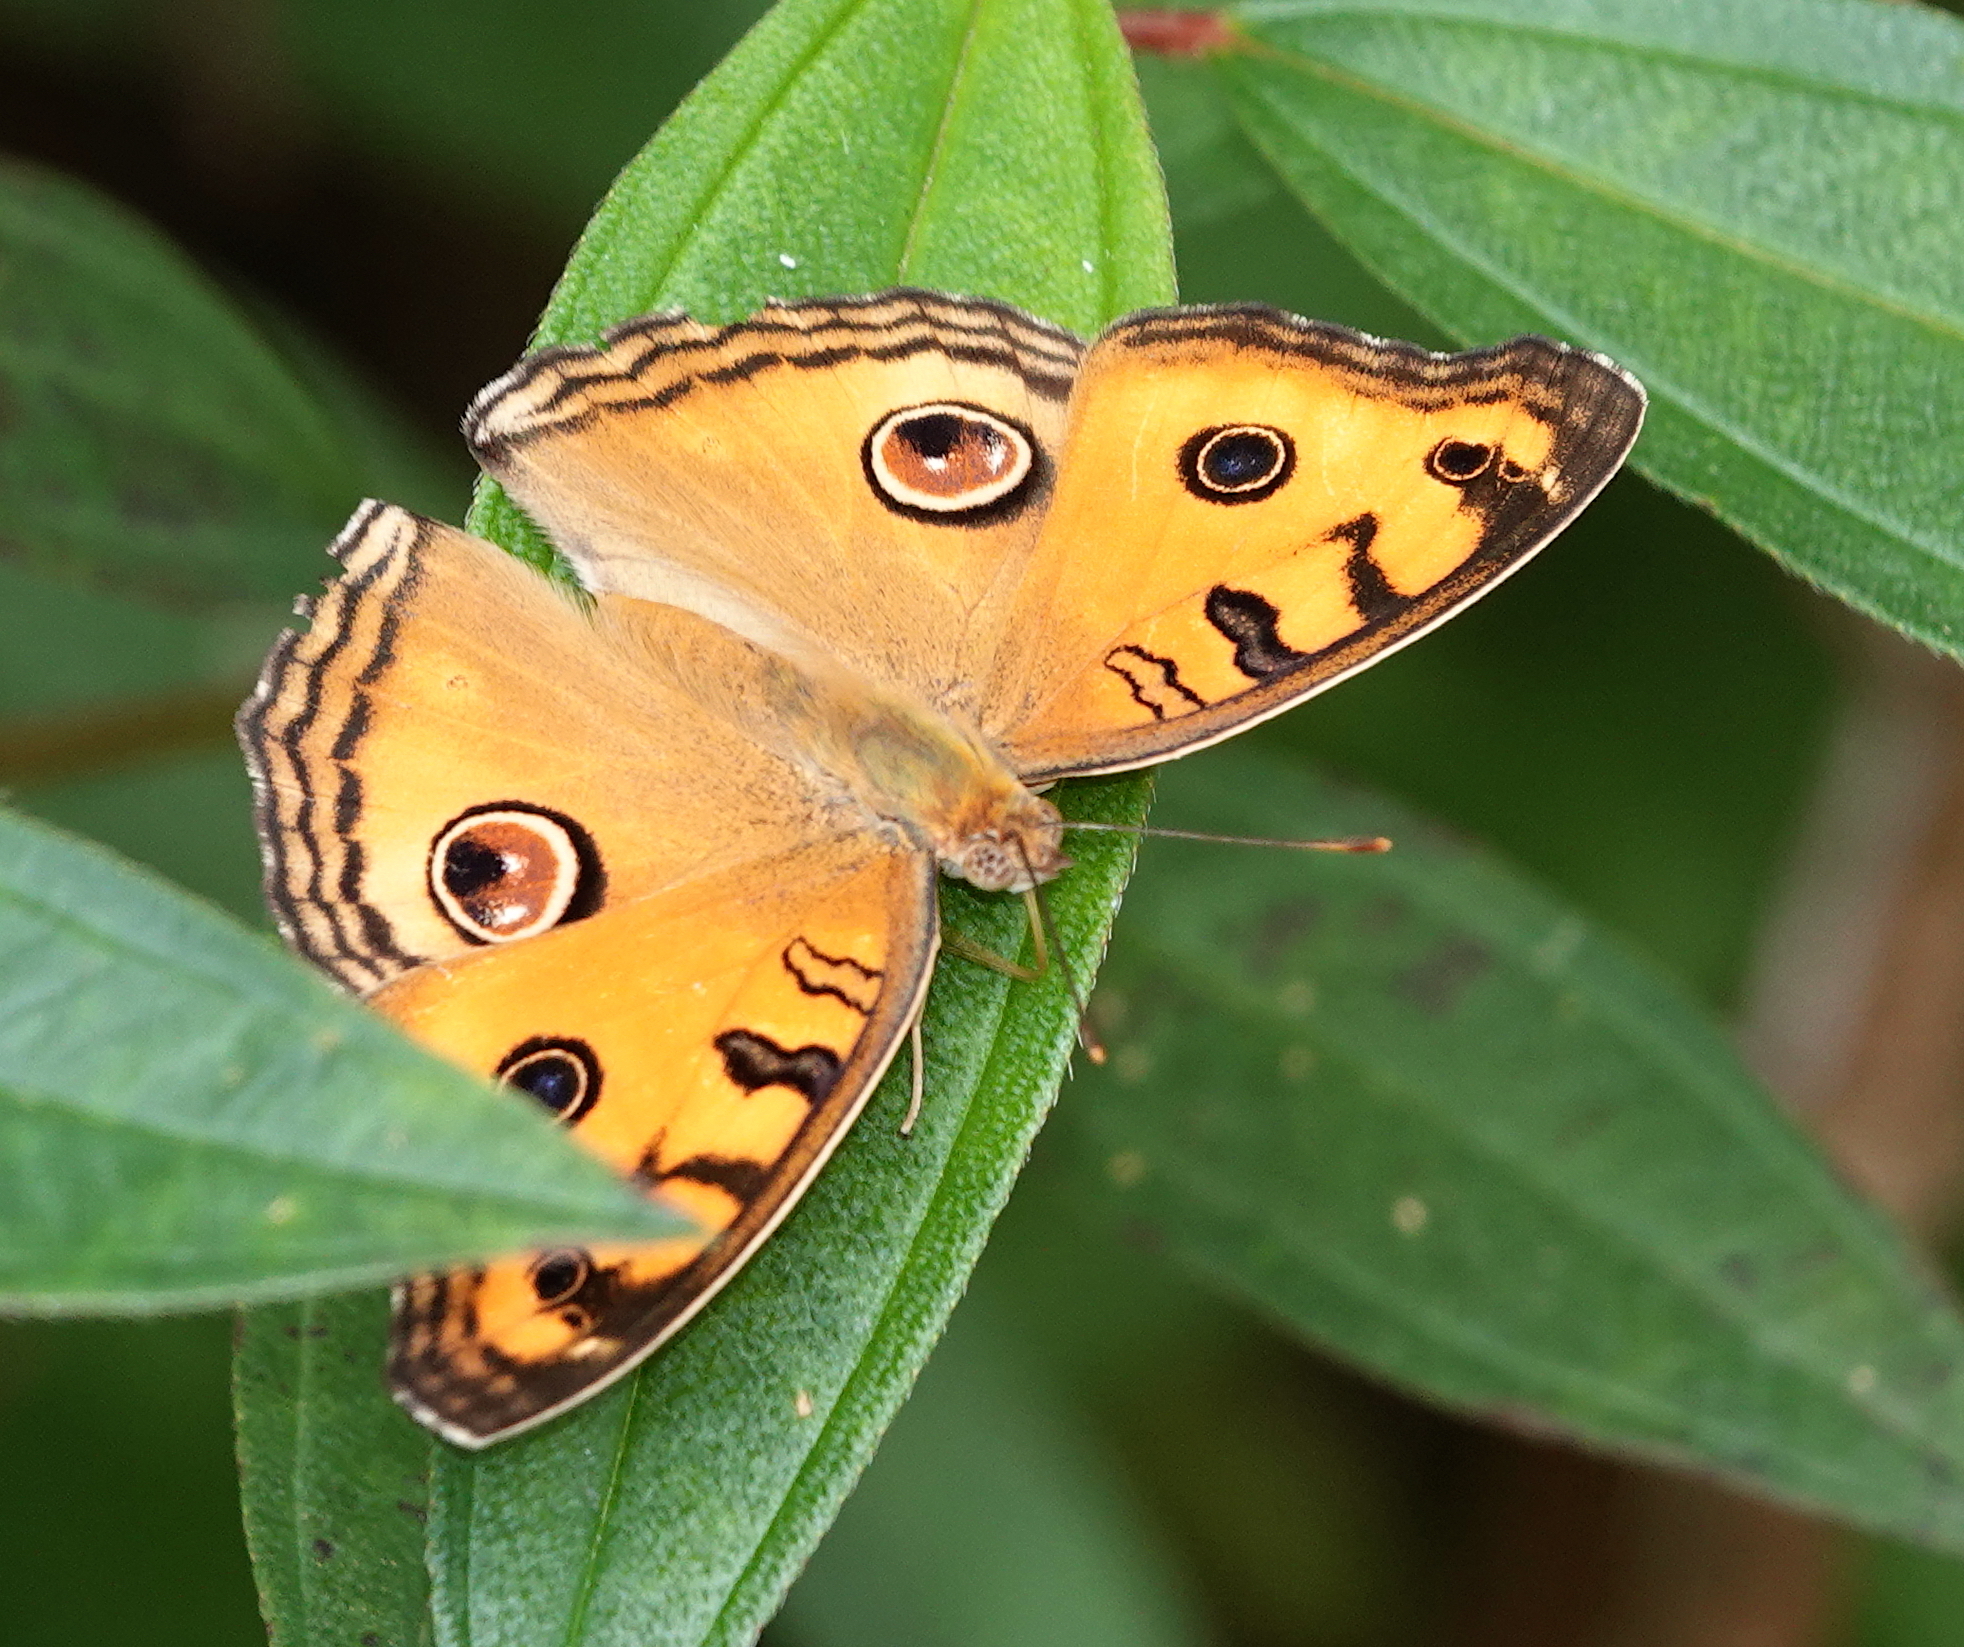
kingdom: Animalia
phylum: Arthropoda
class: Insecta
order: Lepidoptera
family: Nymphalidae
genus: Junonia
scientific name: Junonia almana
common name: Peacock pansy
